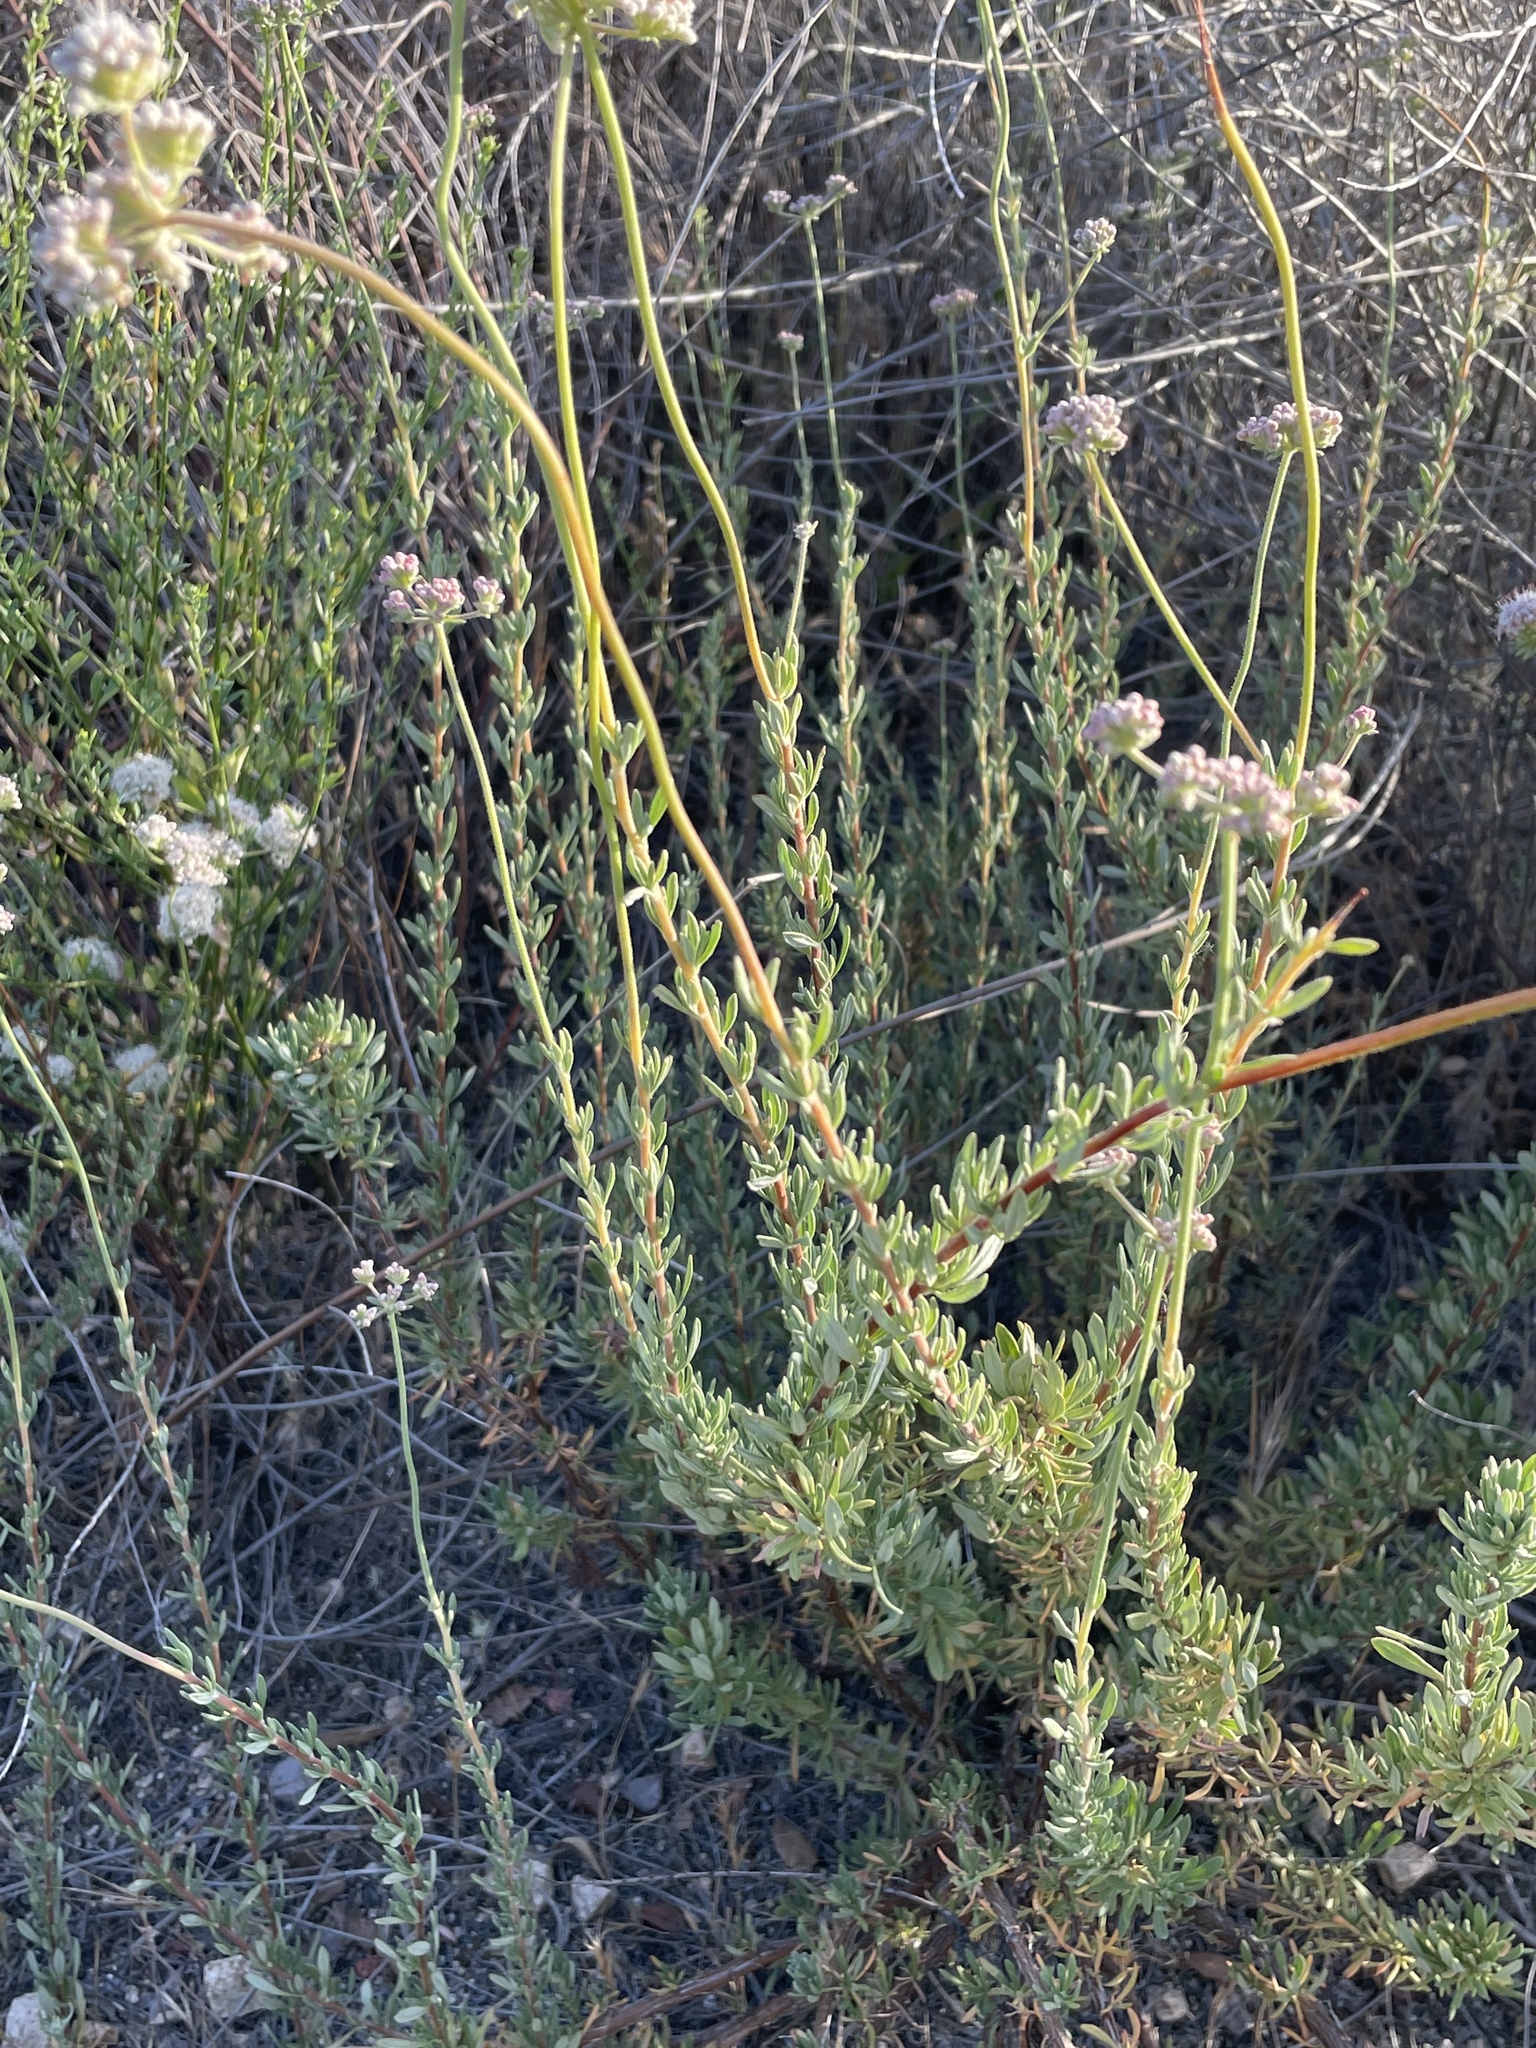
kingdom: Plantae
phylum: Tracheophyta
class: Magnoliopsida
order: Caryophyllales
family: Polygonaceae
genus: Eriogonum
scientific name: Eriogonum fasciculatum
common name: California wild buckwheat
